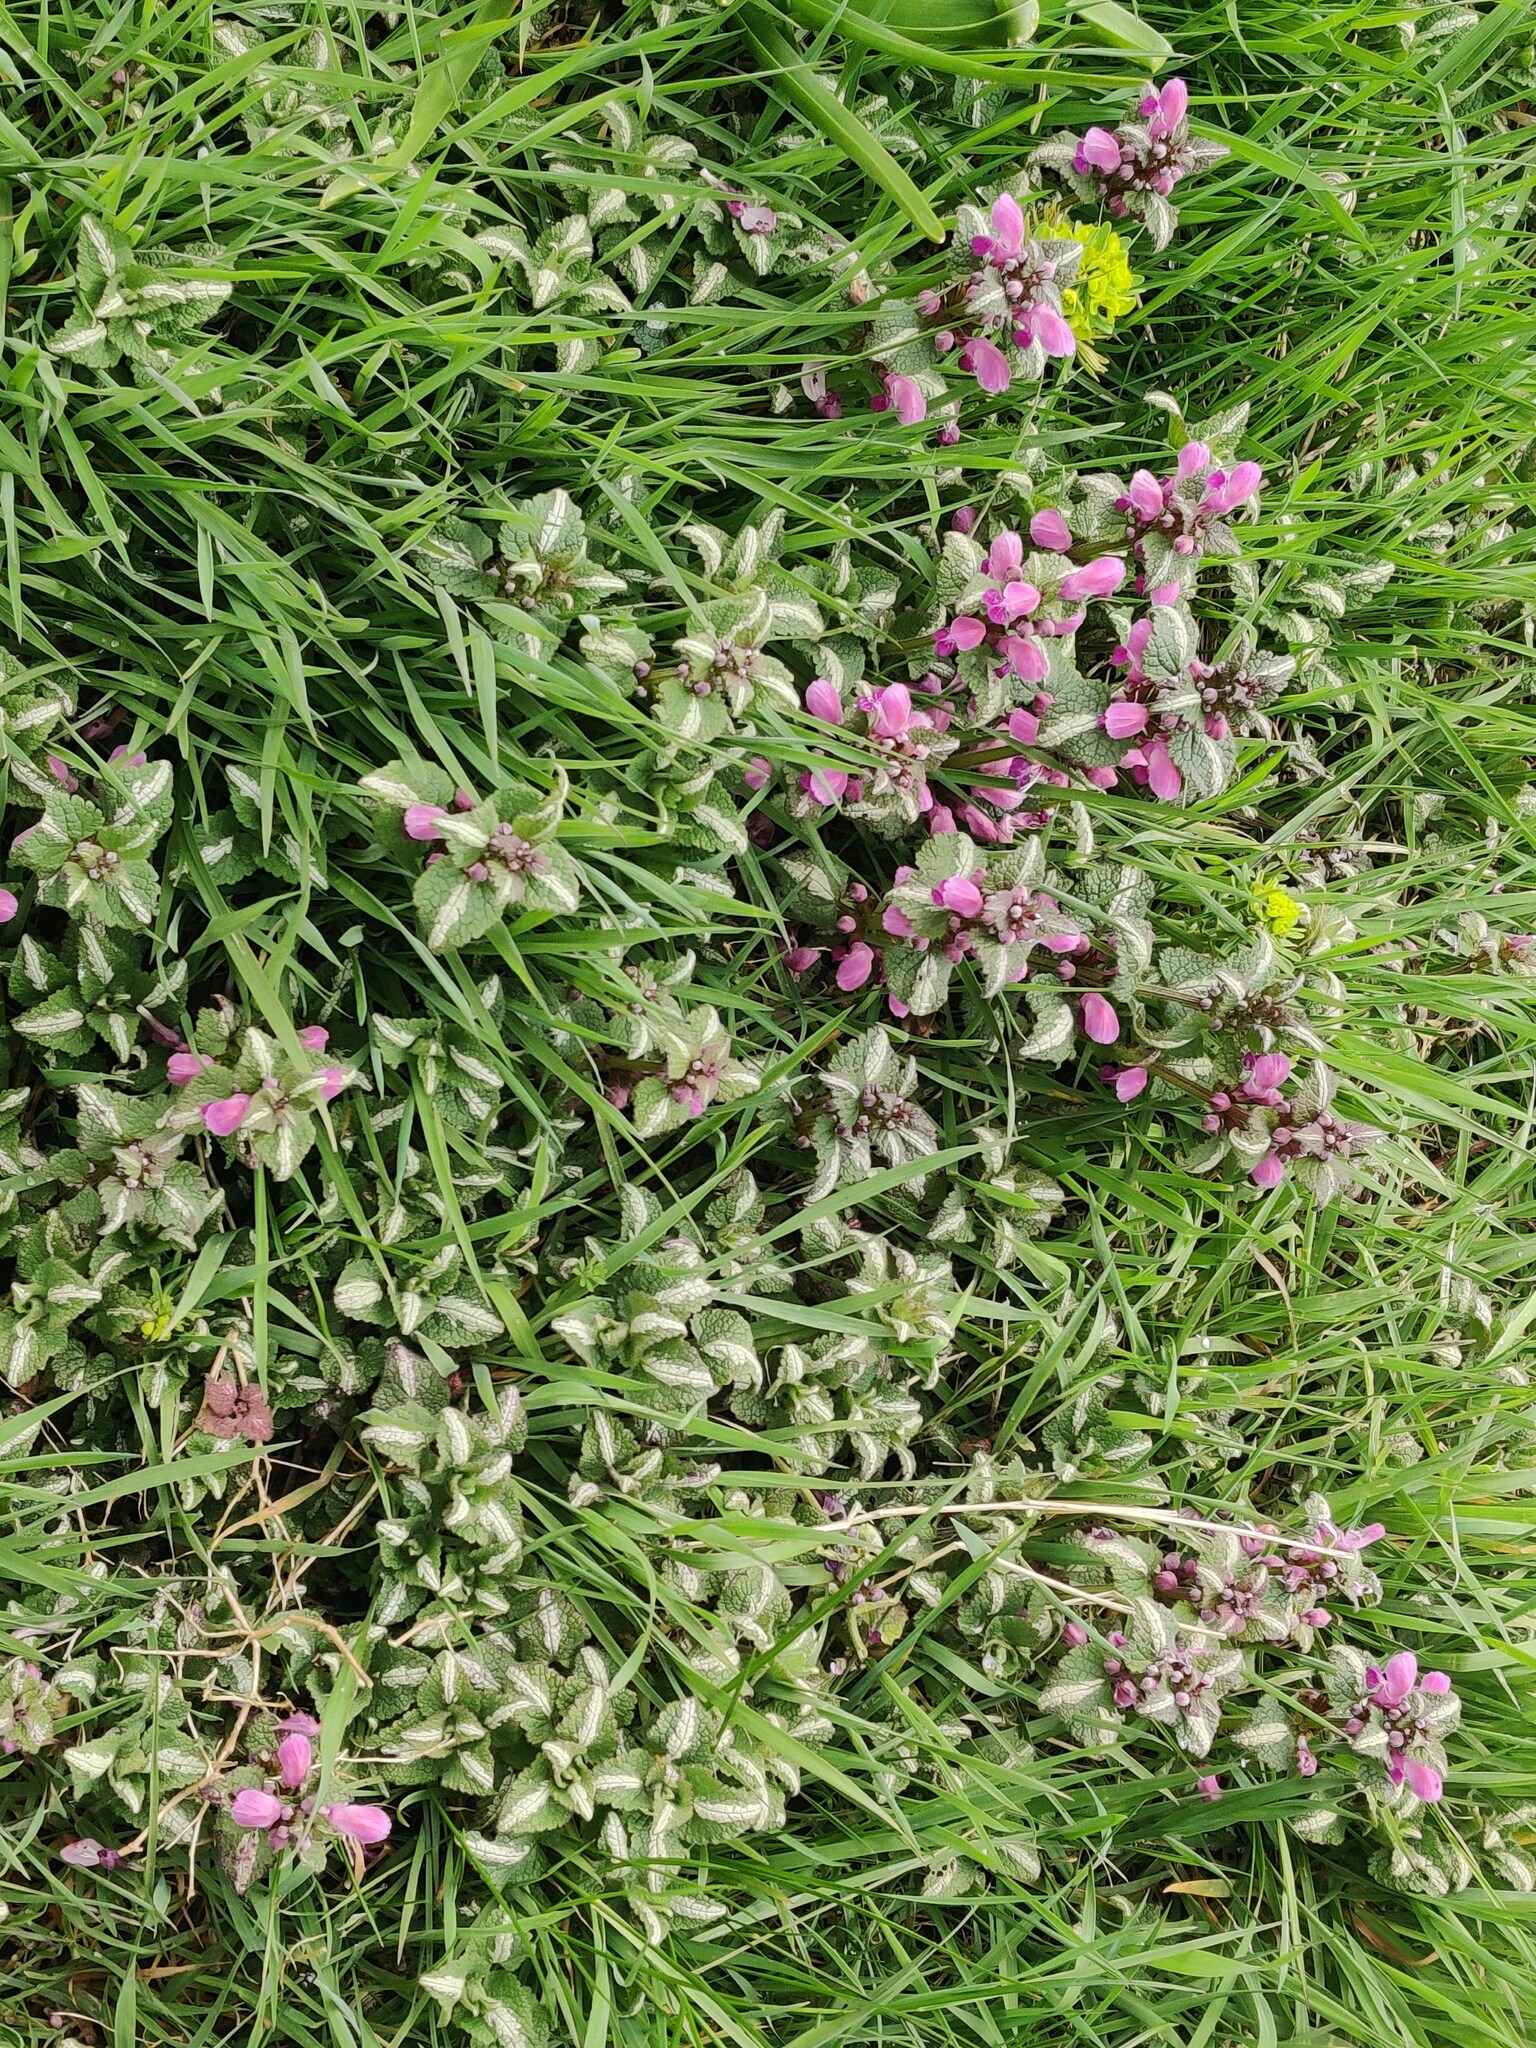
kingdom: Plantae
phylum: Tracheophyta
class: Magnoliopsida
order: Lamiales
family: Lamiaceae
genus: Lamium
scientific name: Lamium maculatum
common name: Spotted dead-nettle
